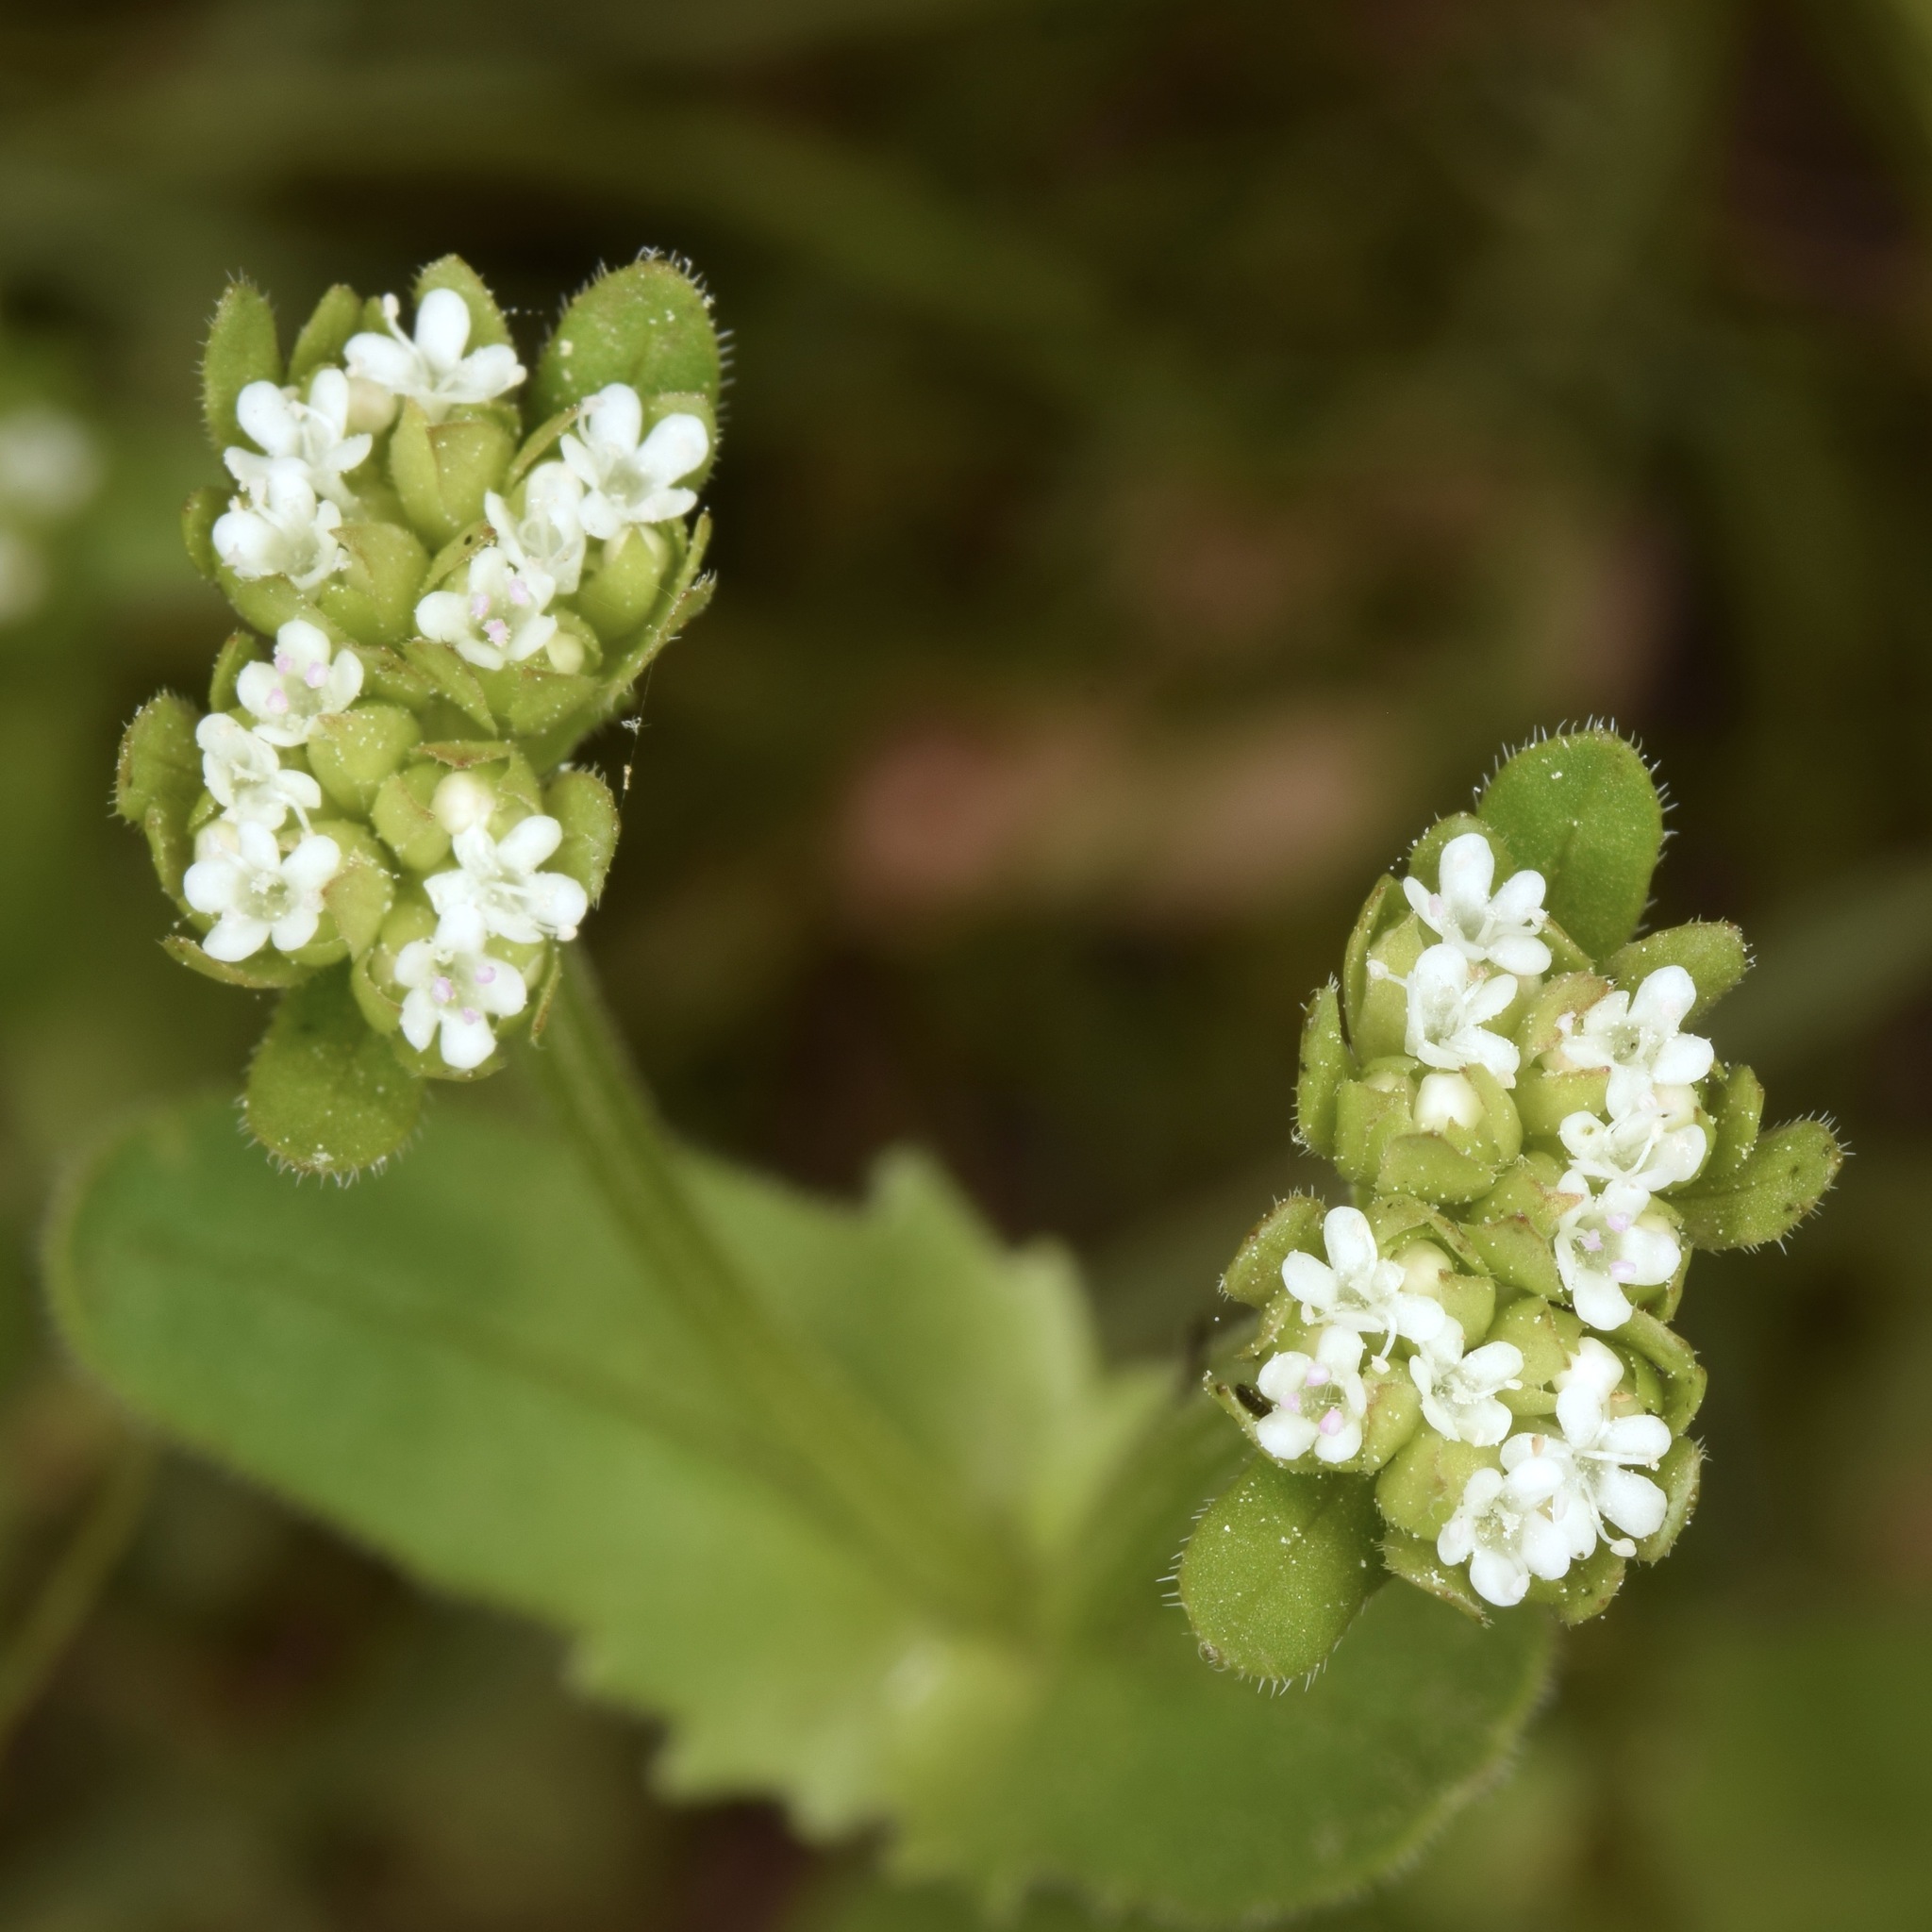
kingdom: Plantae
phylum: Tracheophyta
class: Magnoliopsida
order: Dipsacales
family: Caprifoliaceae
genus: Valerianella
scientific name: Valerianella radiata
